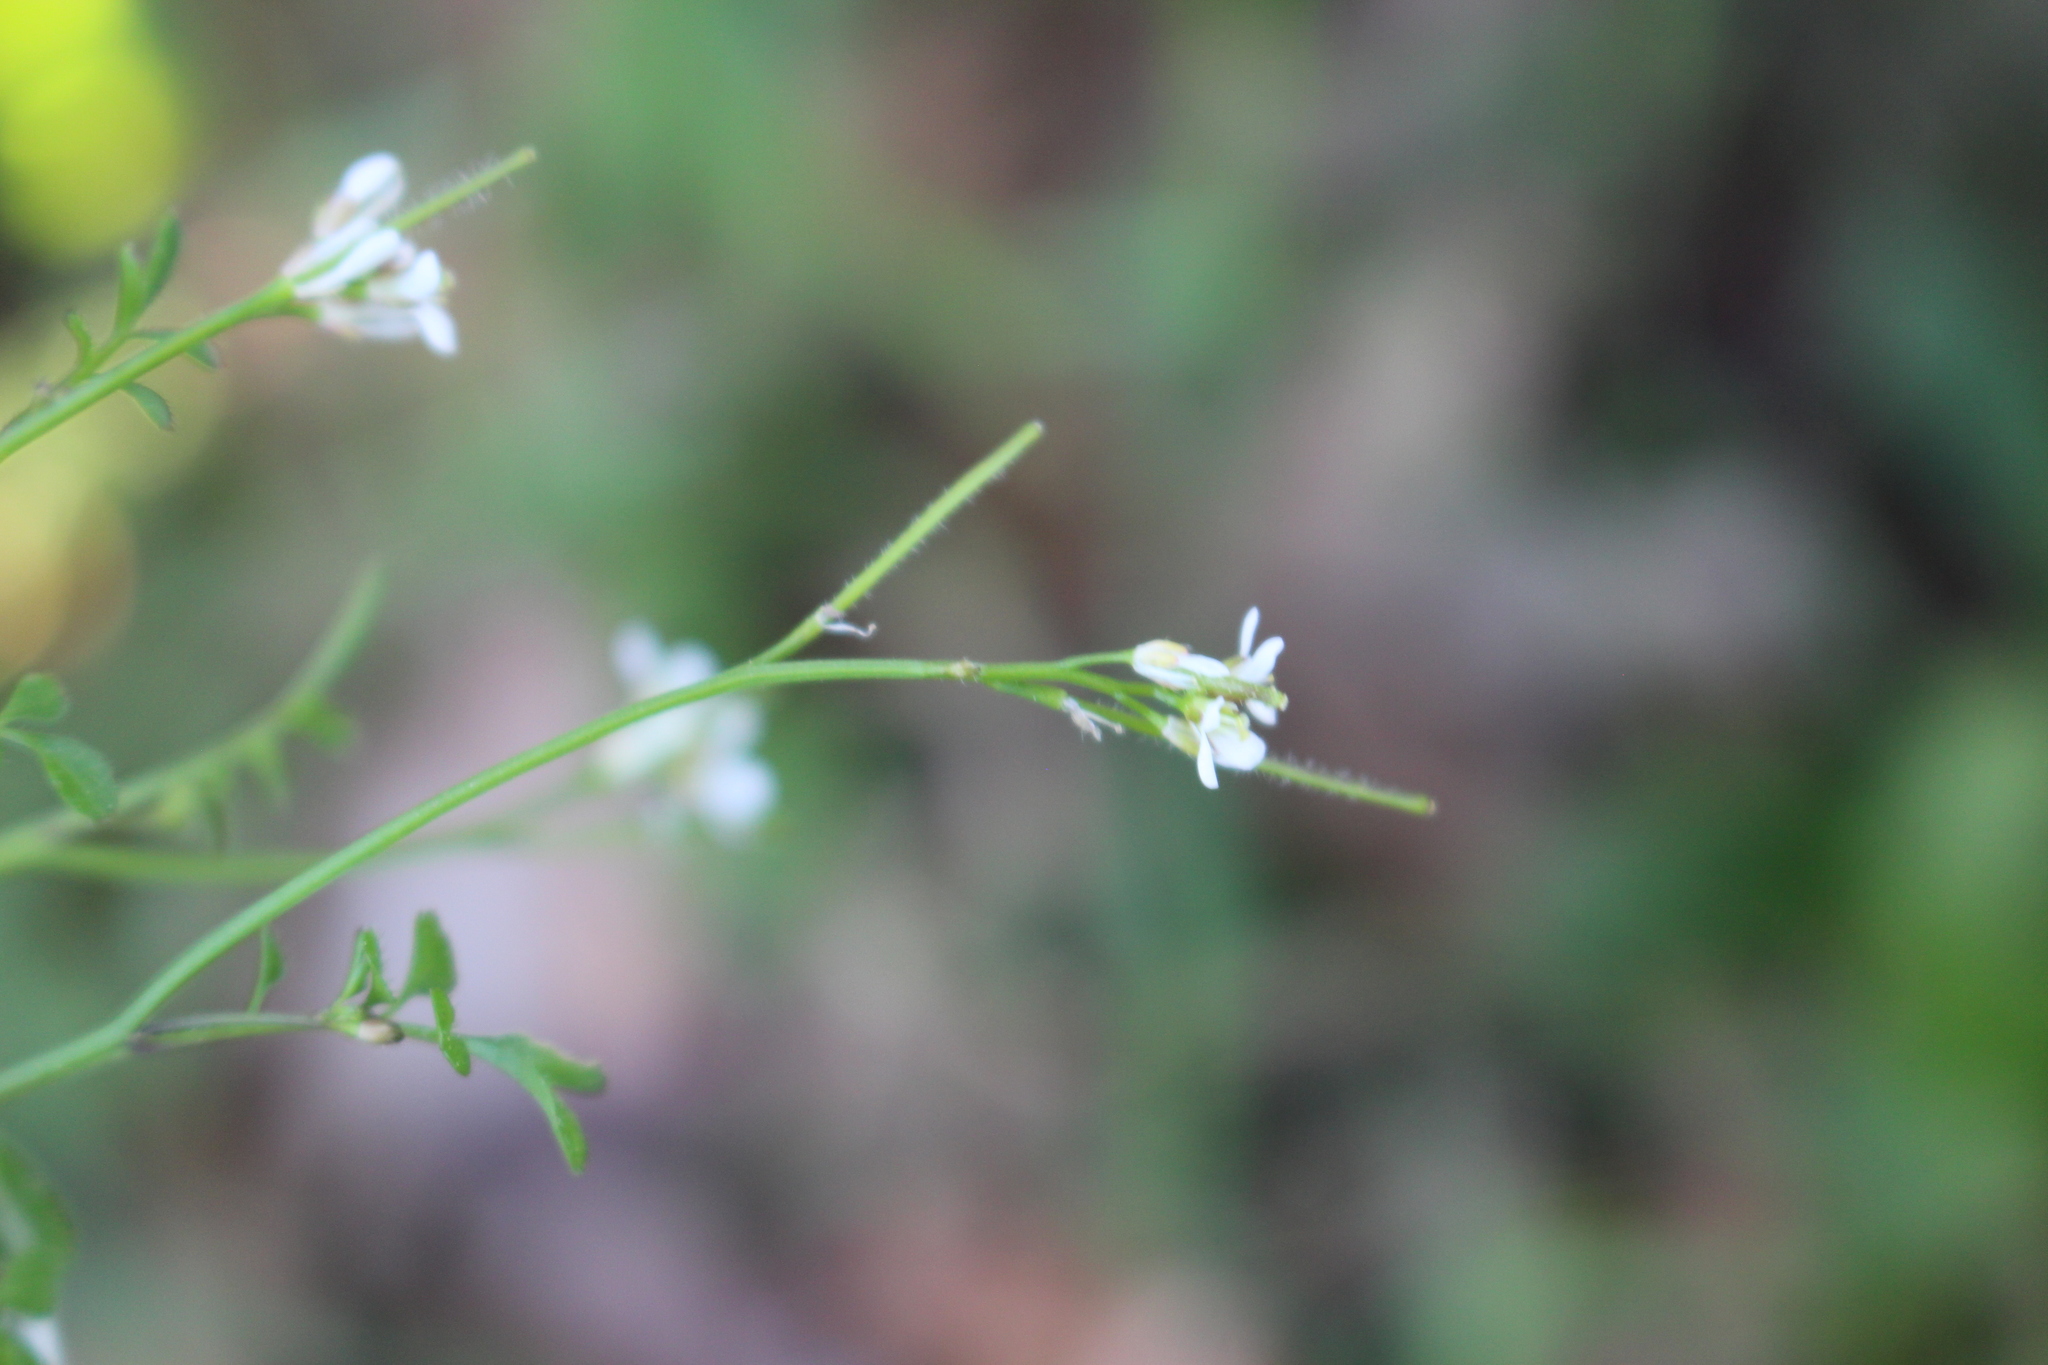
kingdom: Plantae
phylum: Tracheophyta
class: Magnoliopsida
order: Brassicales
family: Brassicaceae
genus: Cardamine
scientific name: Cardamine hirsuta
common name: Hairy bittercress
